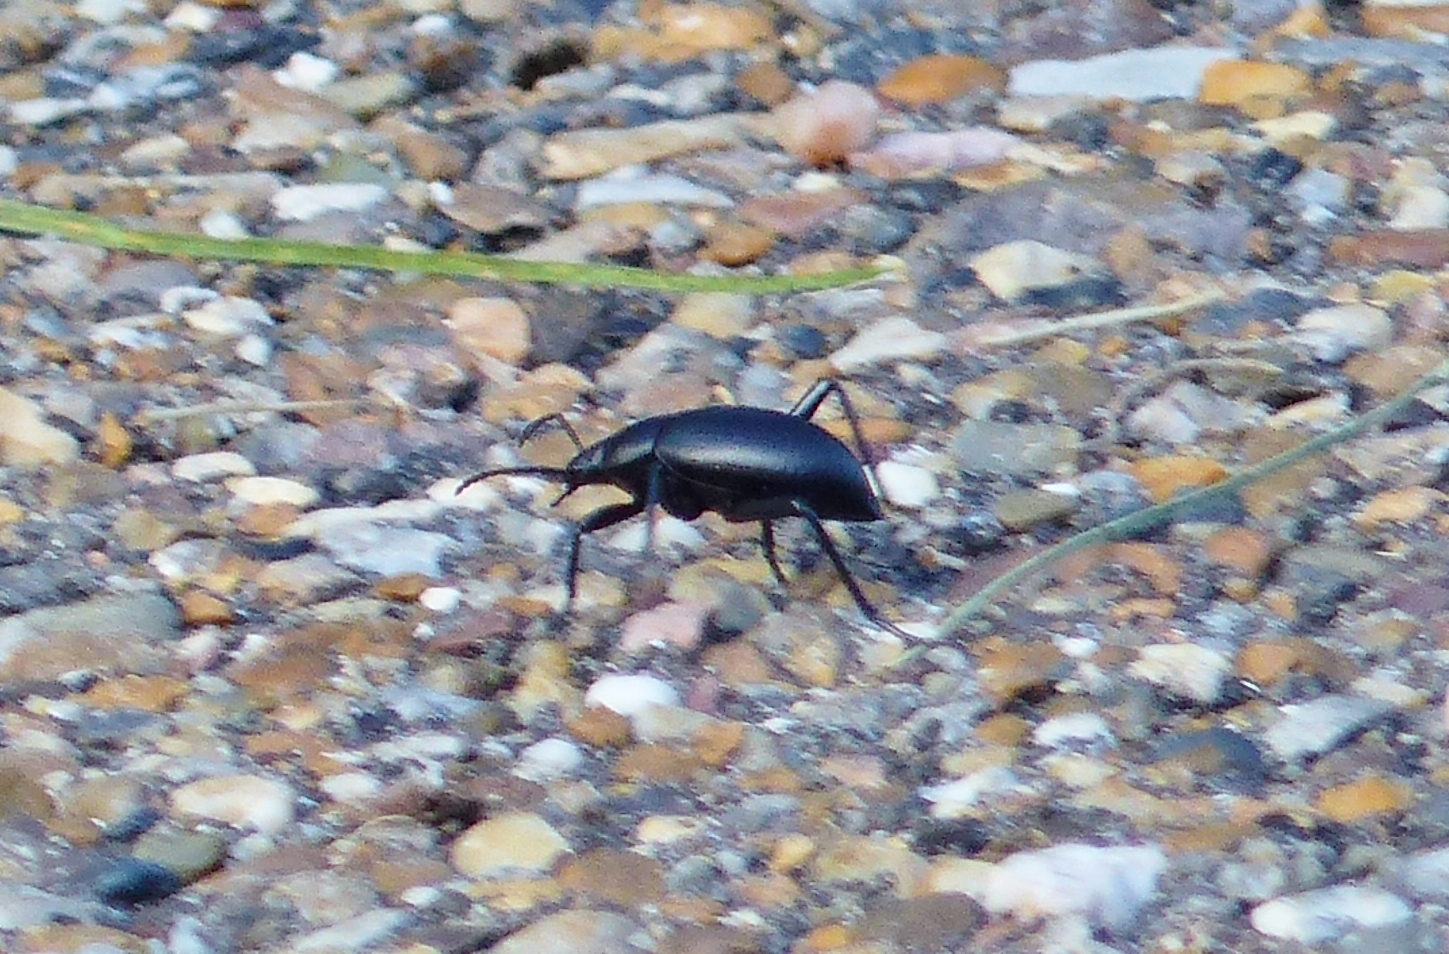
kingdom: Animalia
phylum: Arthropoda
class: Insecta
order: Coleoptera
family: Tenebrionidae
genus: Eleodes
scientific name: Eleodes goryi
